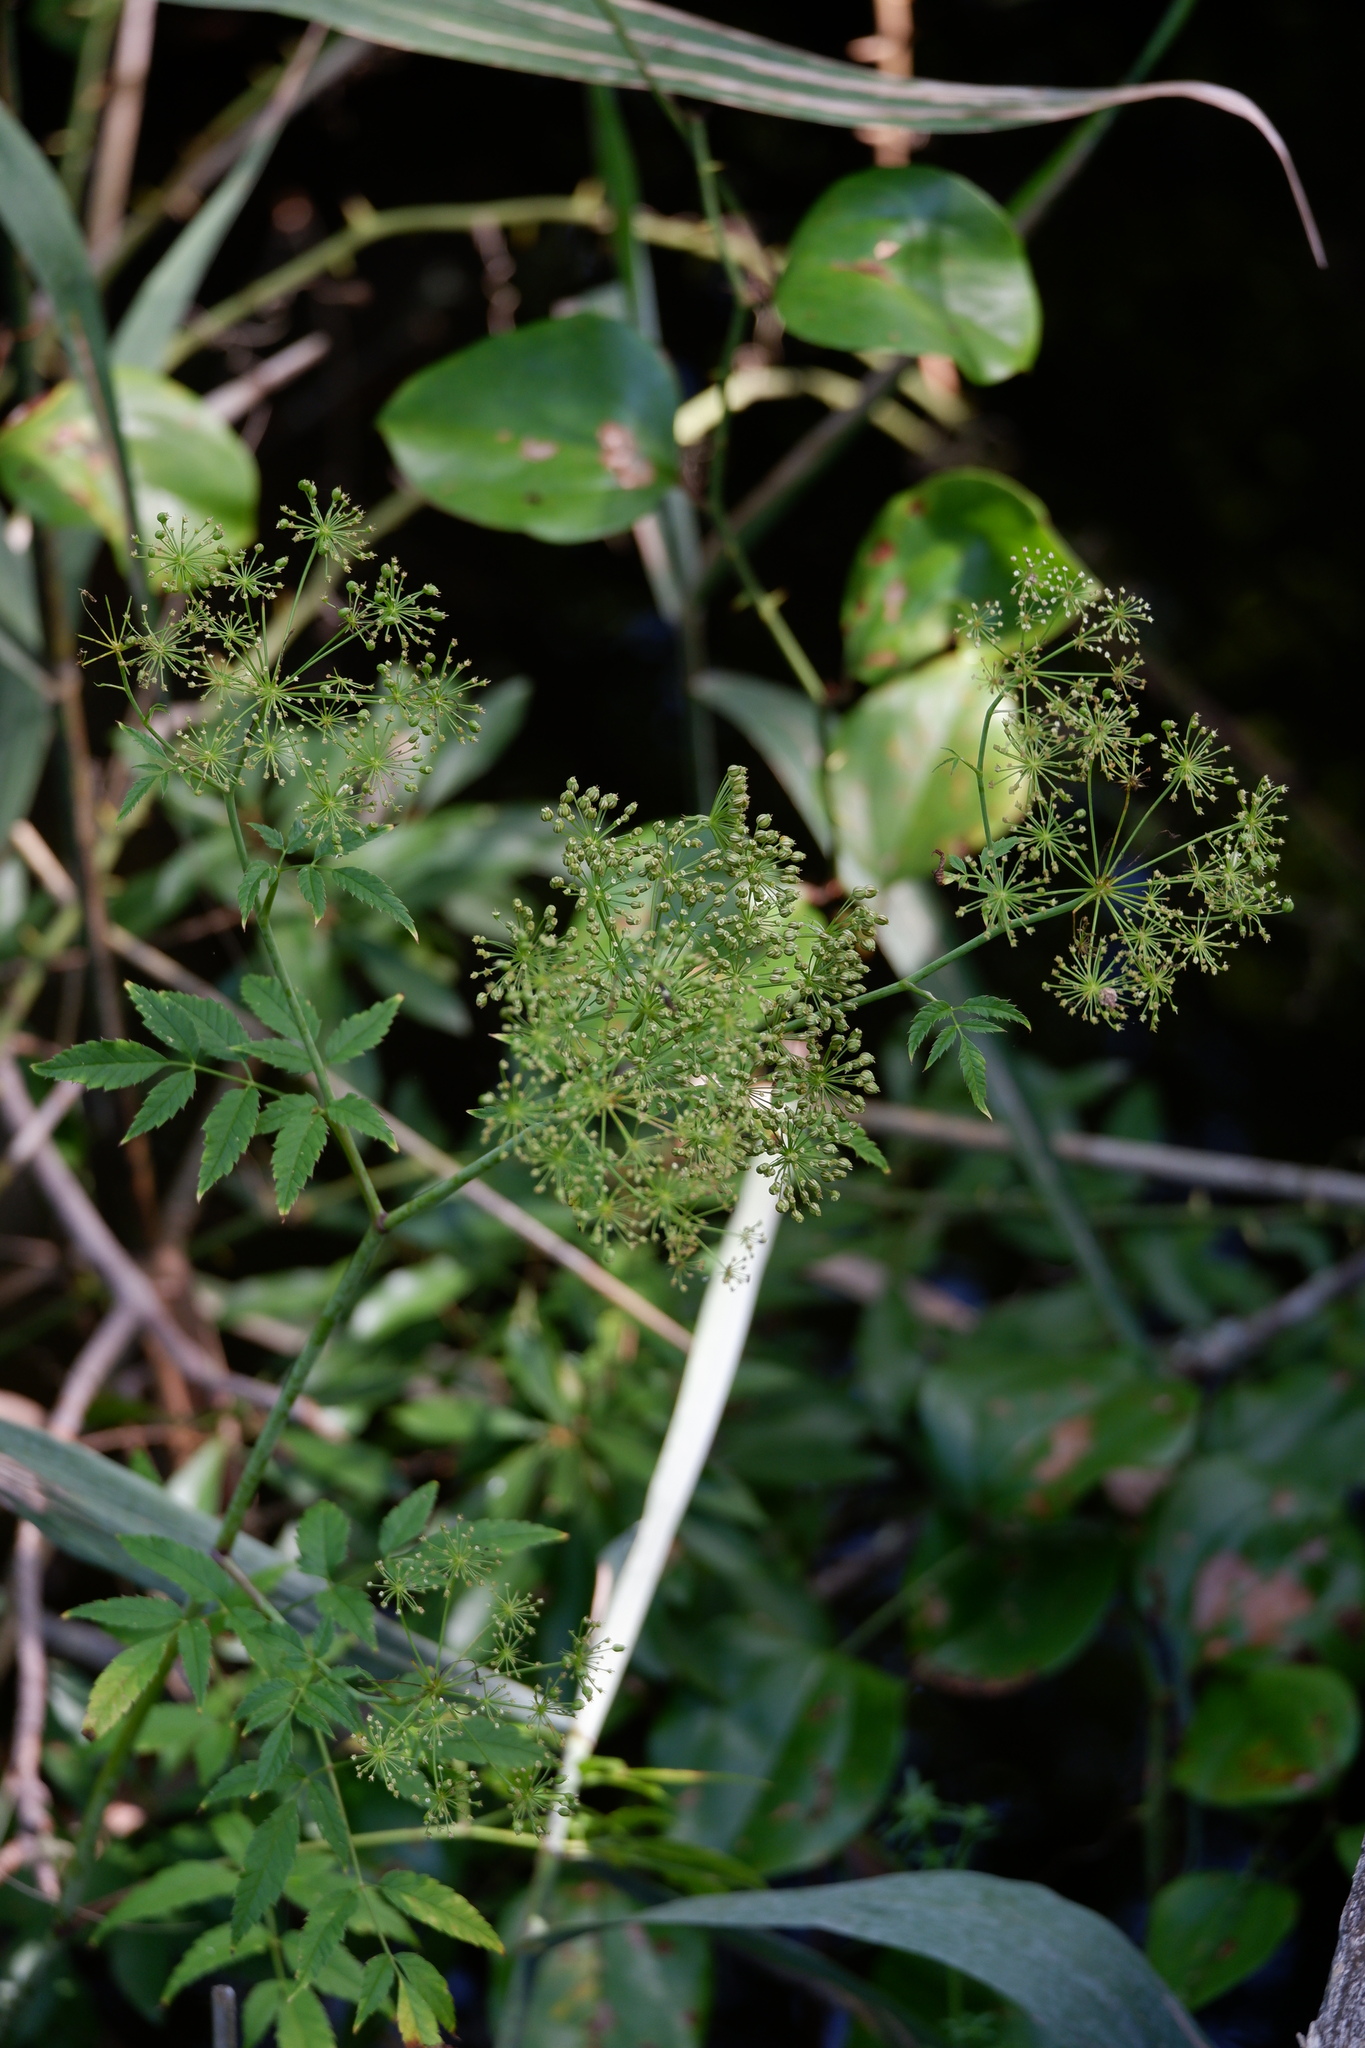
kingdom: Plantae
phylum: Tracheophyta
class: Magnoliopsida
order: Apiales
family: Apiaceae
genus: Cicuta
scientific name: Cicuta maculata
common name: Spotted cowbane
